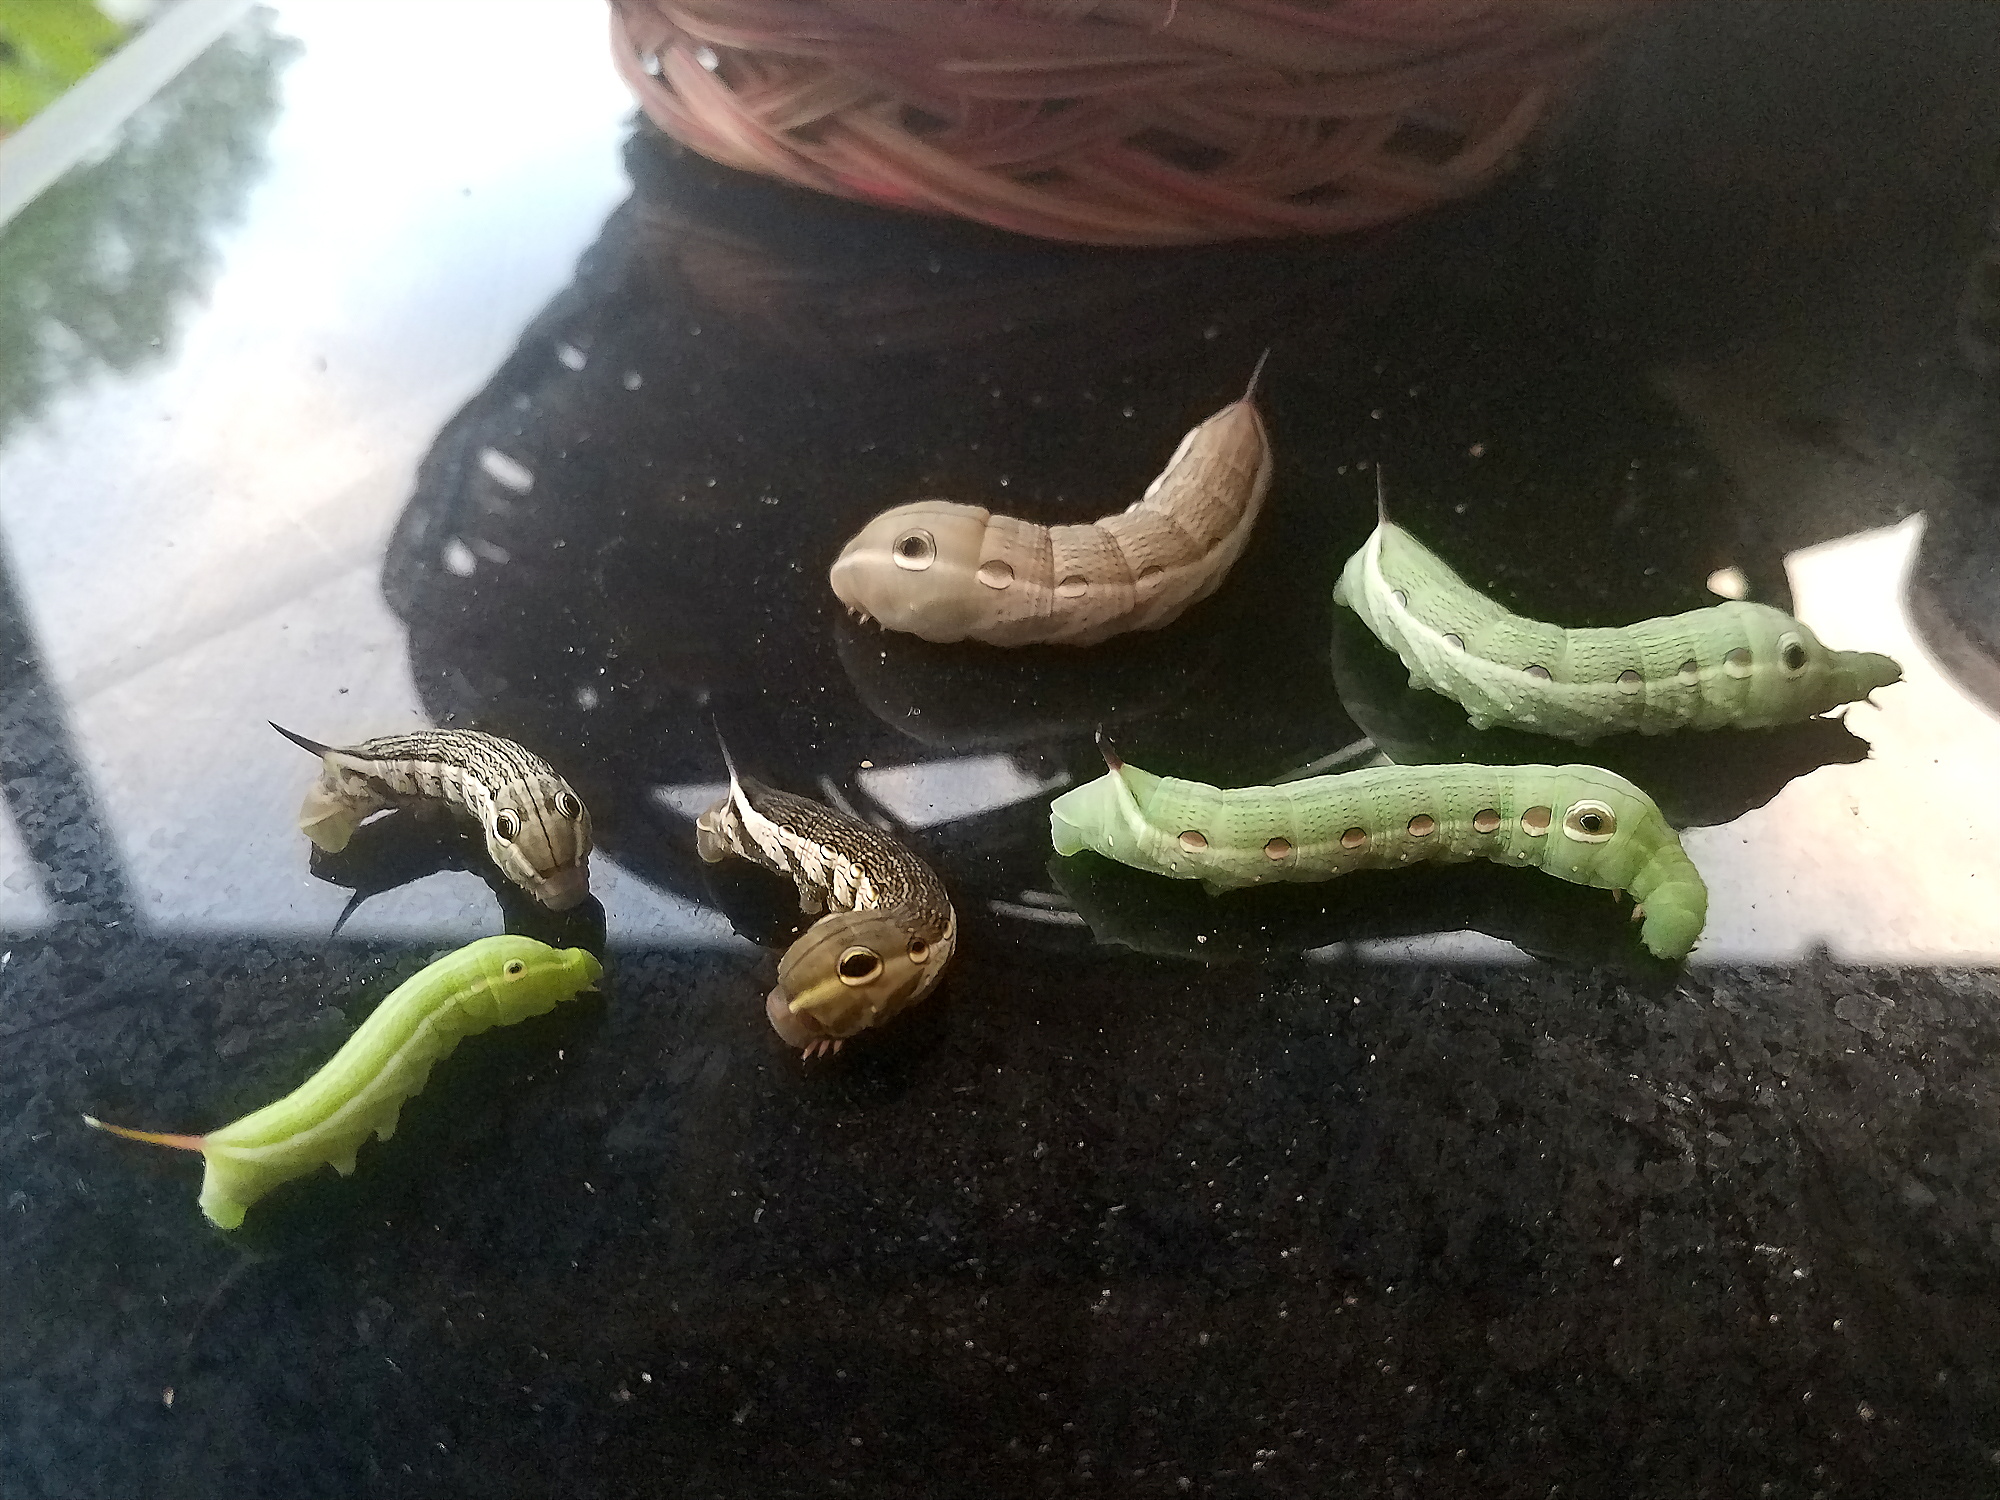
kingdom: Animalia
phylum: Arthropoda
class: Insecta
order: Lepidoptera
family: Sphingidae
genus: Xylophanes
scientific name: Xylophanes tersa
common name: Tersa sphinx
